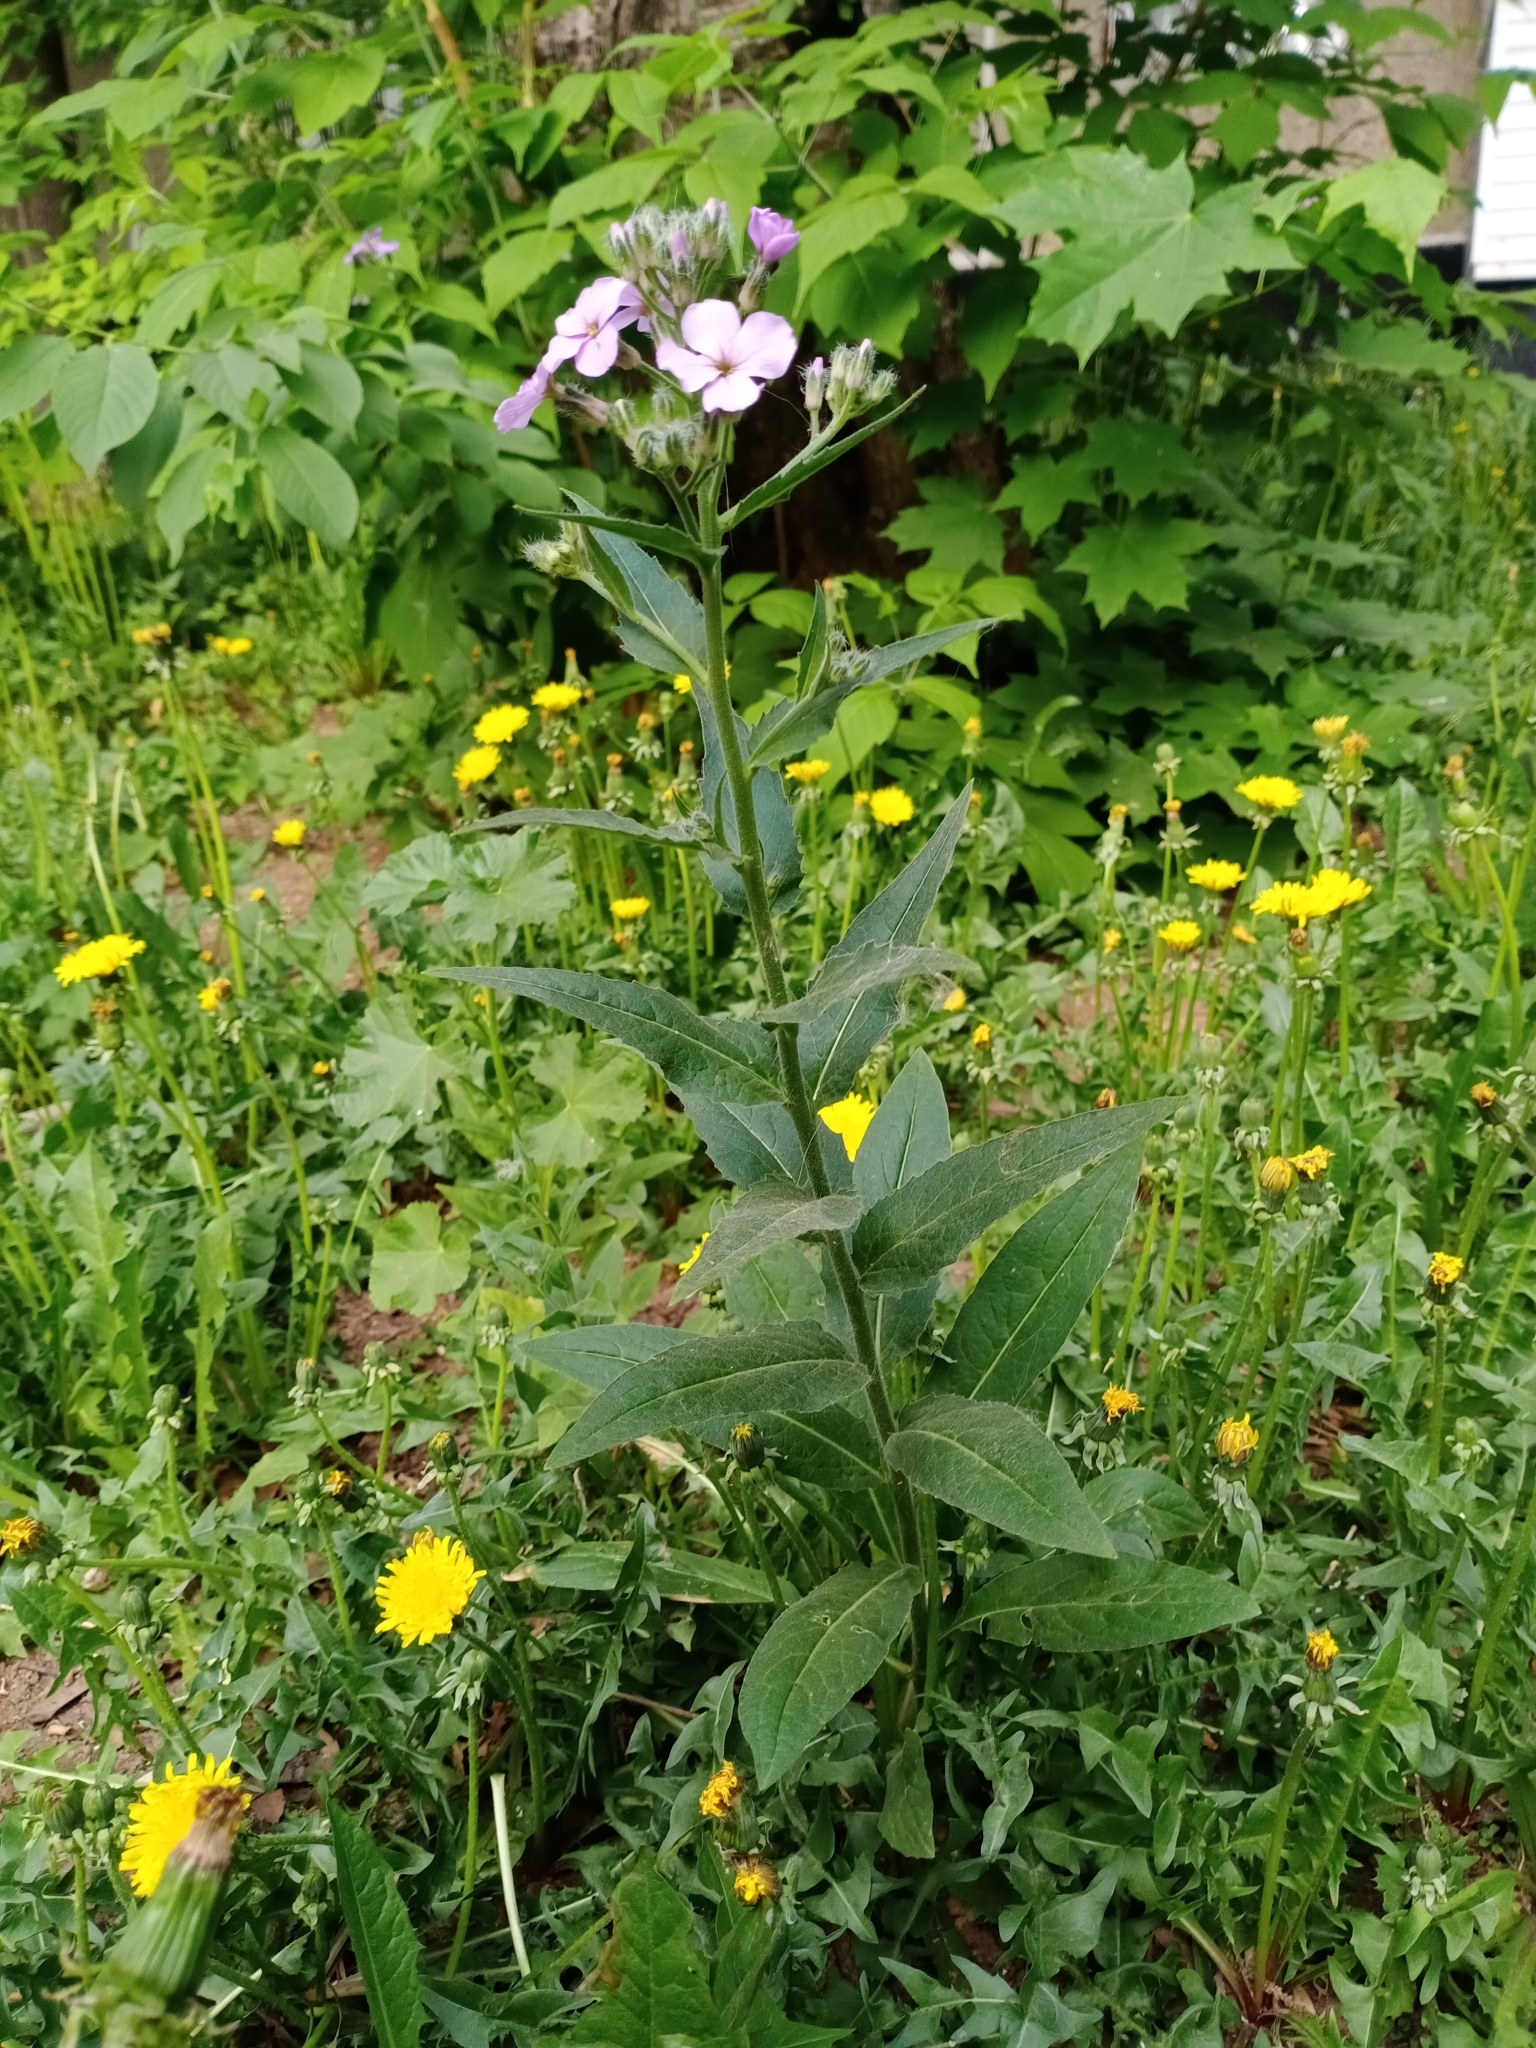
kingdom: Plantae
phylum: Tracheophyta
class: Magnoliopsida
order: Brassicales
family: Brassicaceae
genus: Hesperis
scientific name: Hesperis matronalis
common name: Dame's-violet
